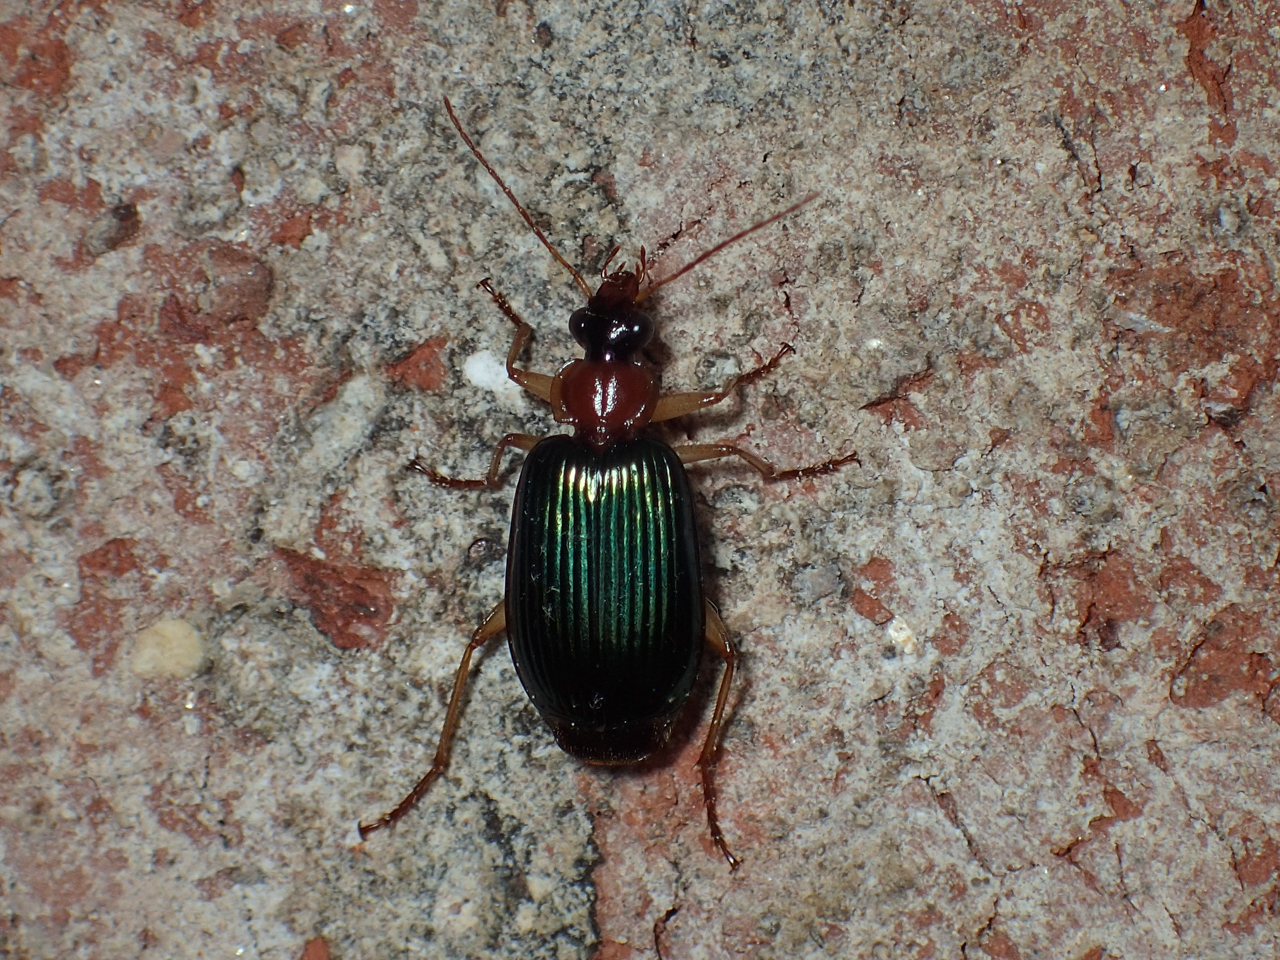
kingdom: Animalia
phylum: Arthropoda
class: Insecta
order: Coleoptera
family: Carabidae
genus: Lebia
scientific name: Lebia grandis
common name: Large foliage ground beetle
